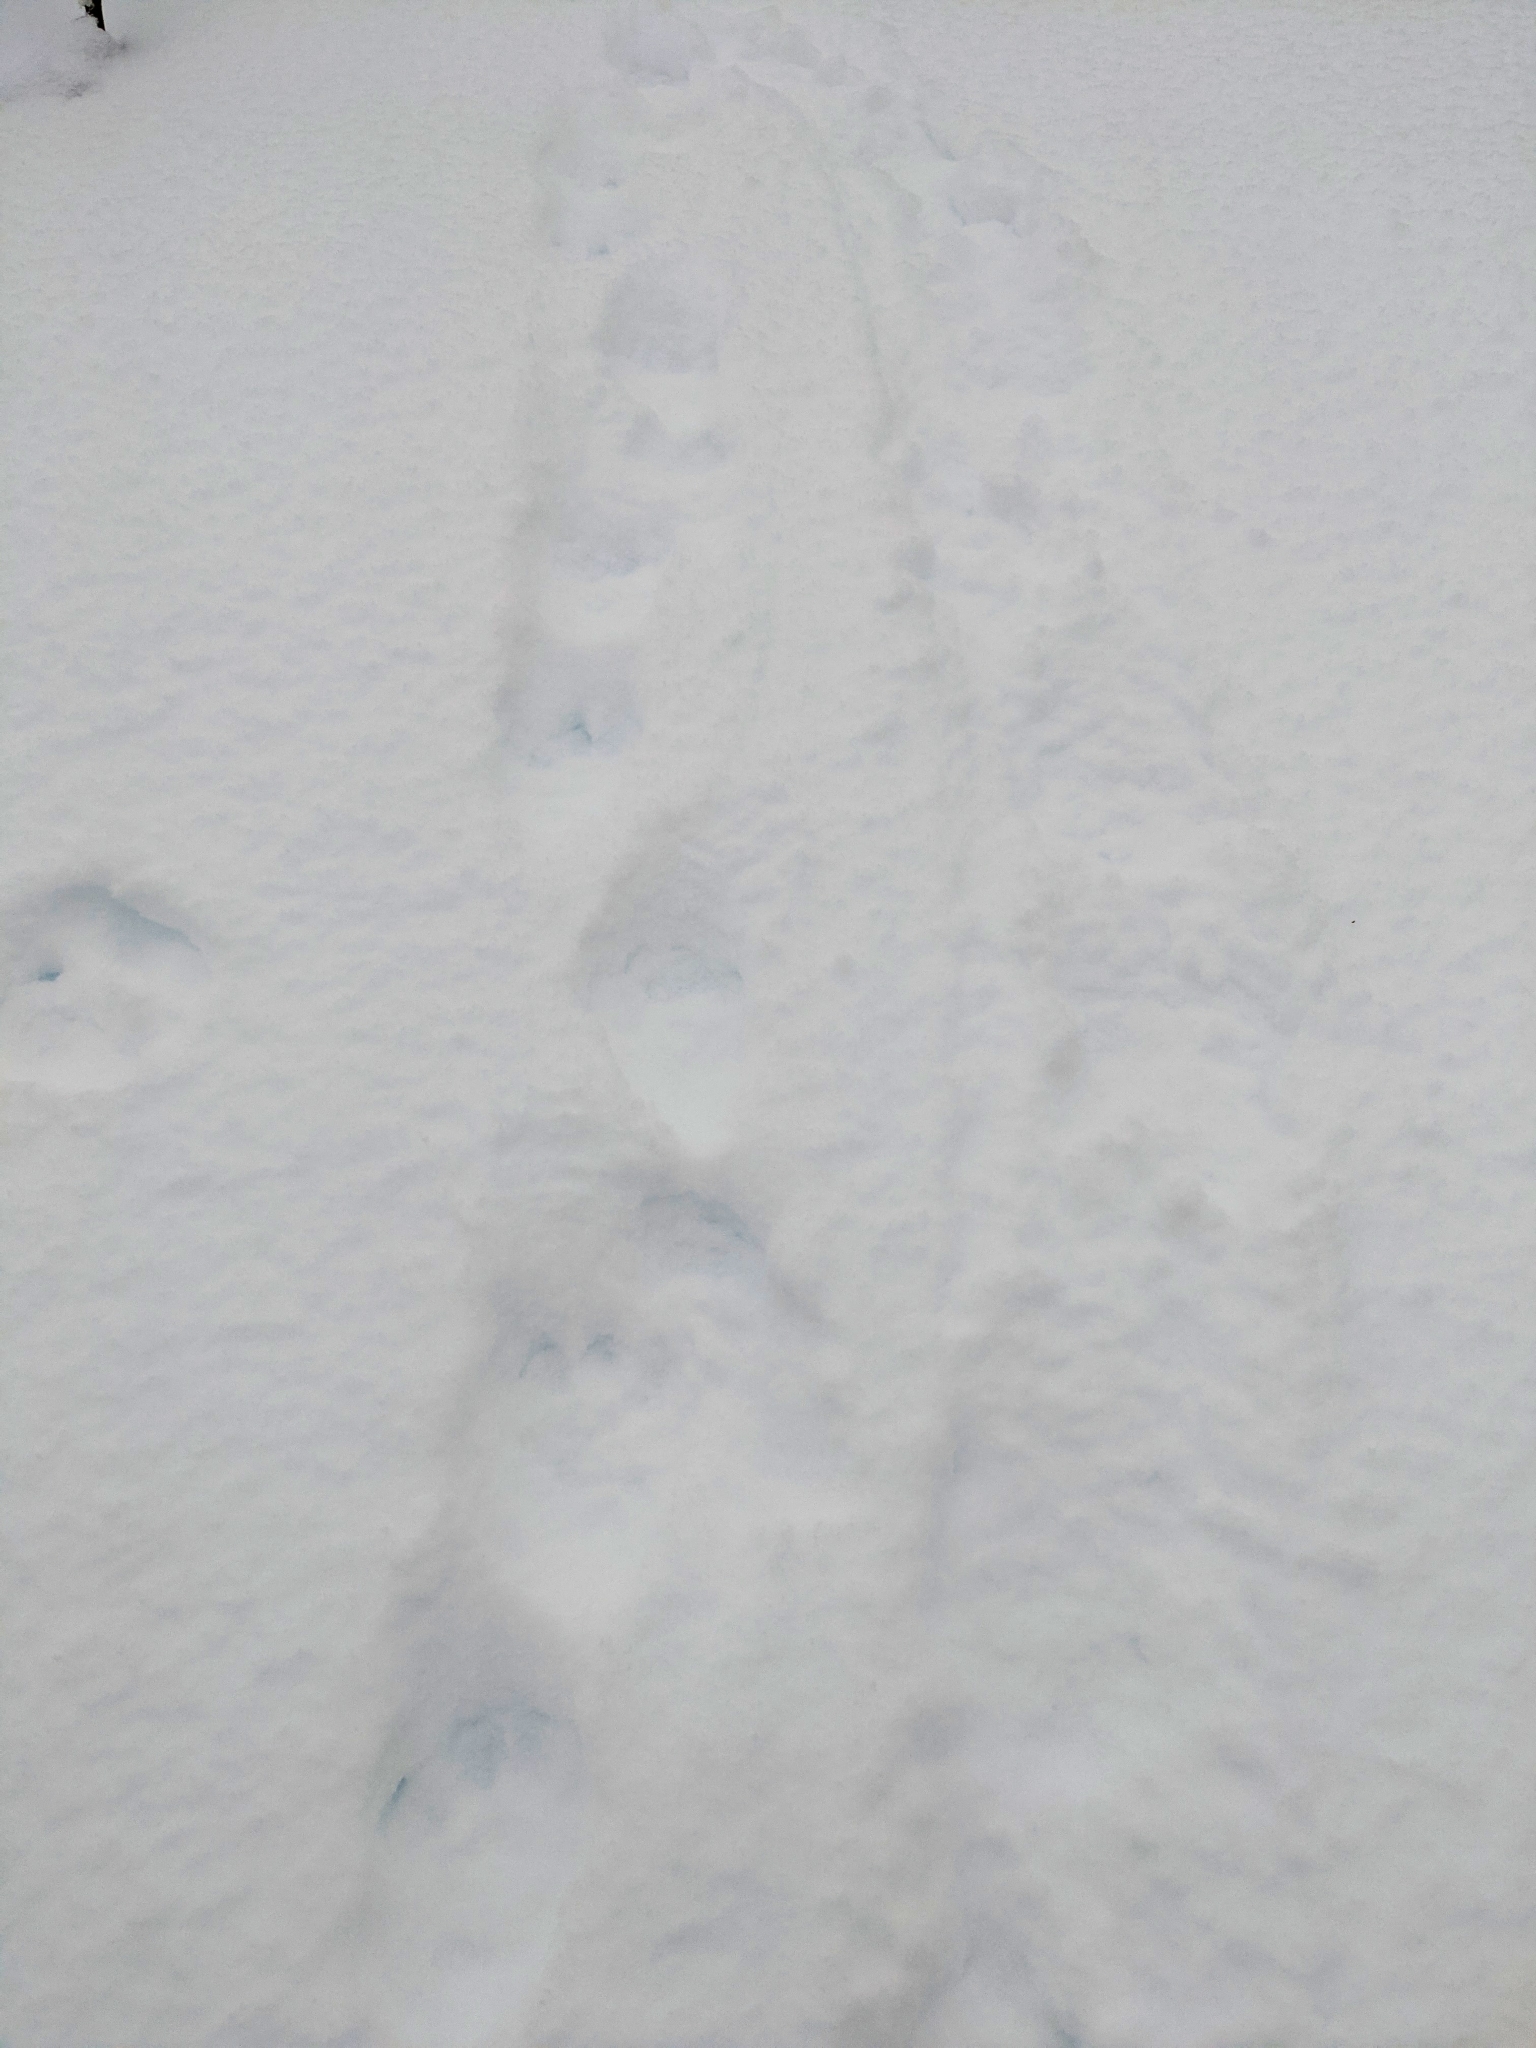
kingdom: Animalia
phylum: Chordata
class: Mammalia
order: Carnivora
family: Mustelidae
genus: Gulo
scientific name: Gulo gulo
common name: Wolverine
